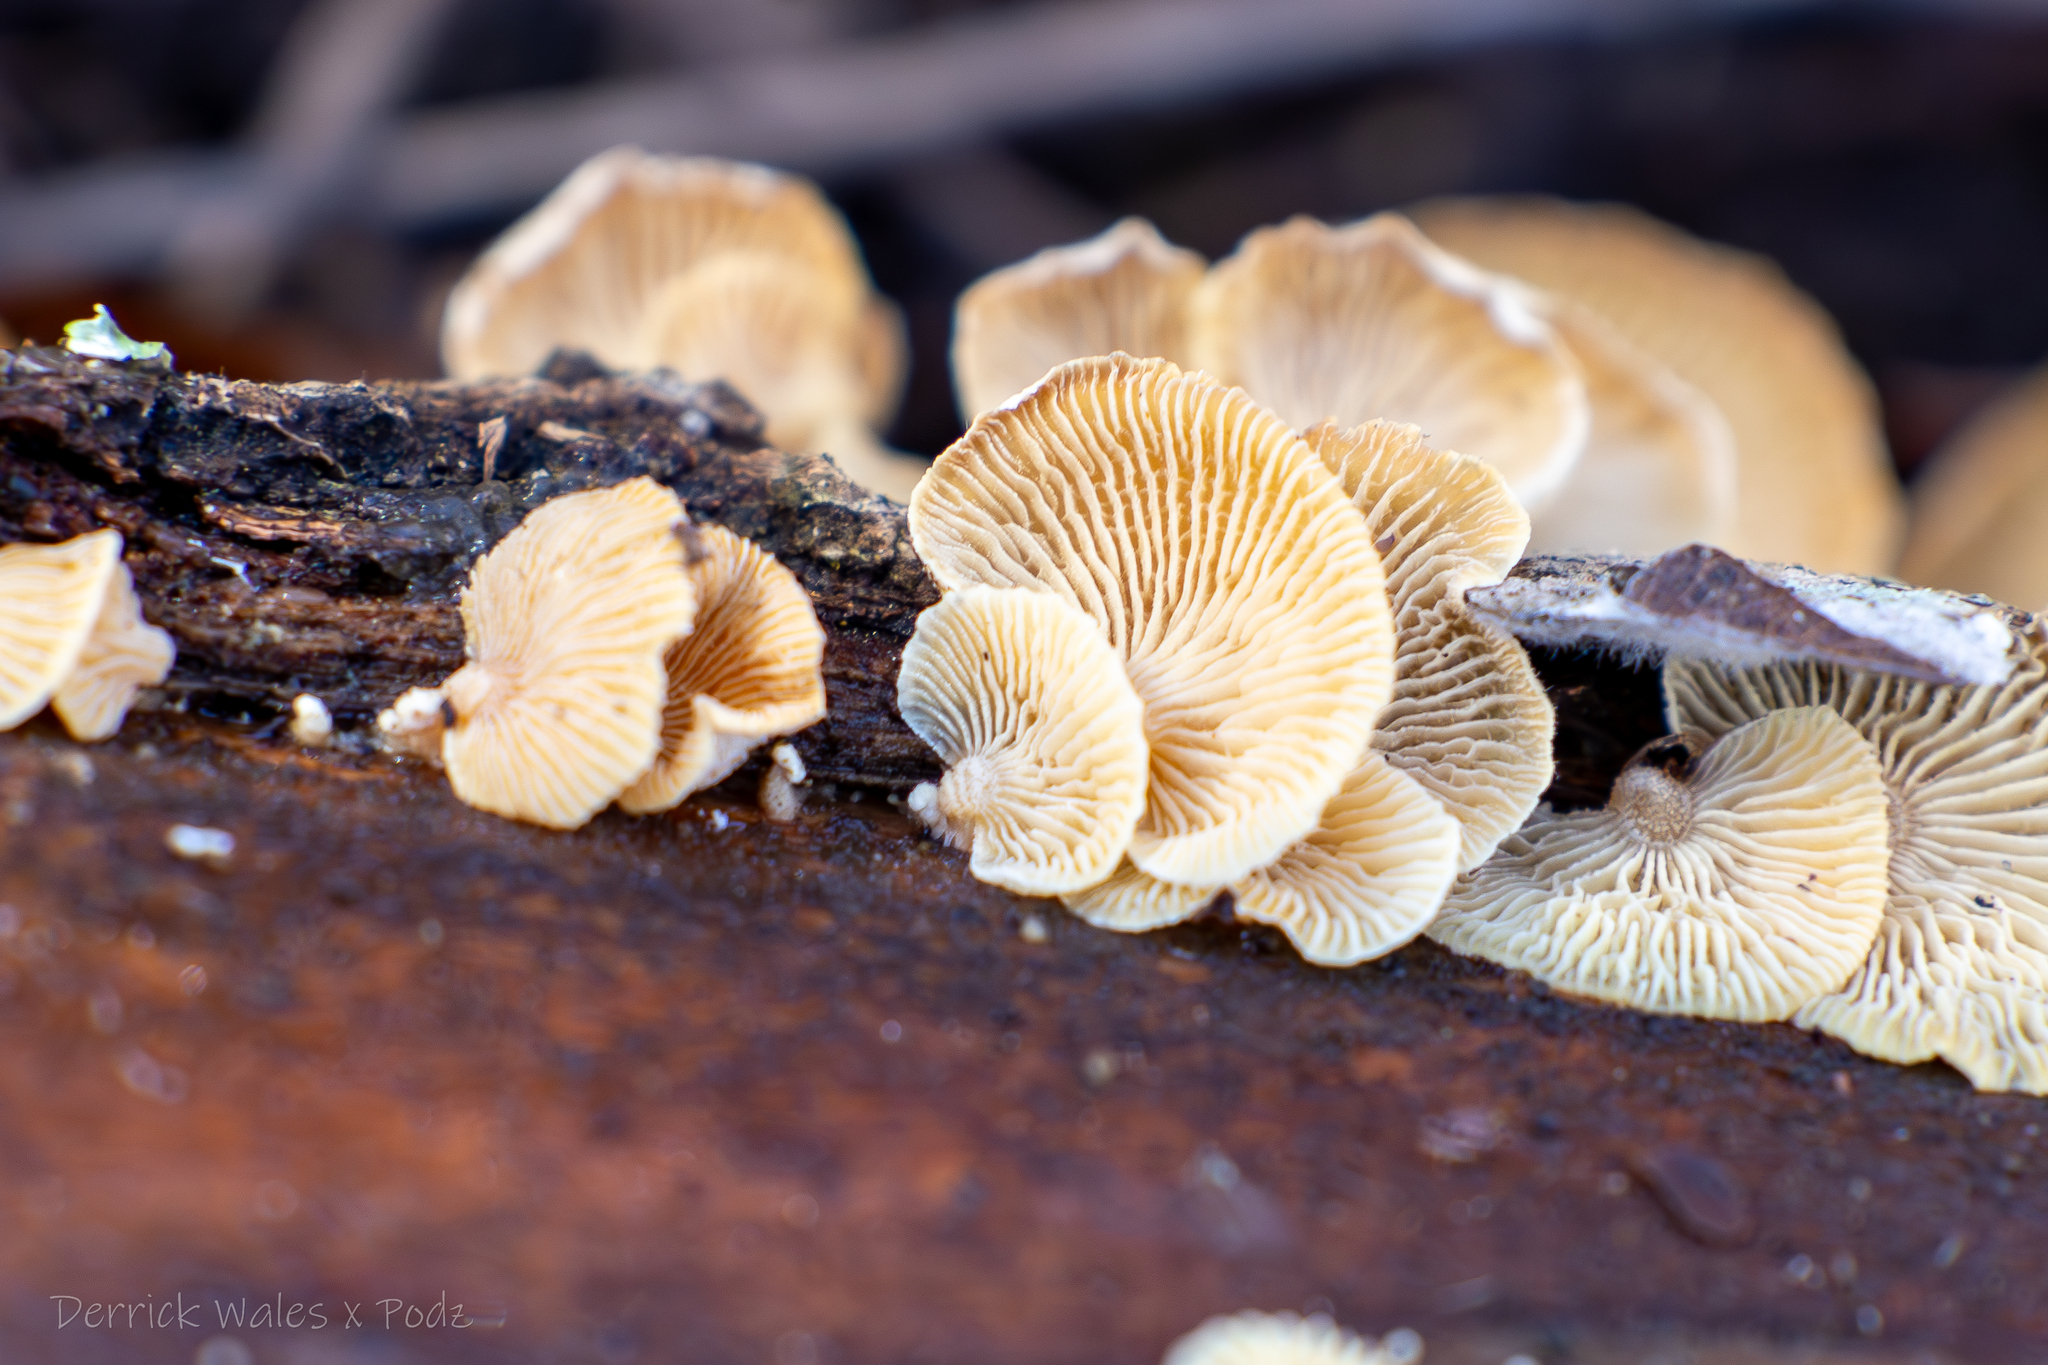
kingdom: Fungi
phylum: Basidiomycota
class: Agaricomycetes
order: Agaricales
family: Mycenaceae
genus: Panellus
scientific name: Panellus stipticus
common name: Bitter oysterling
